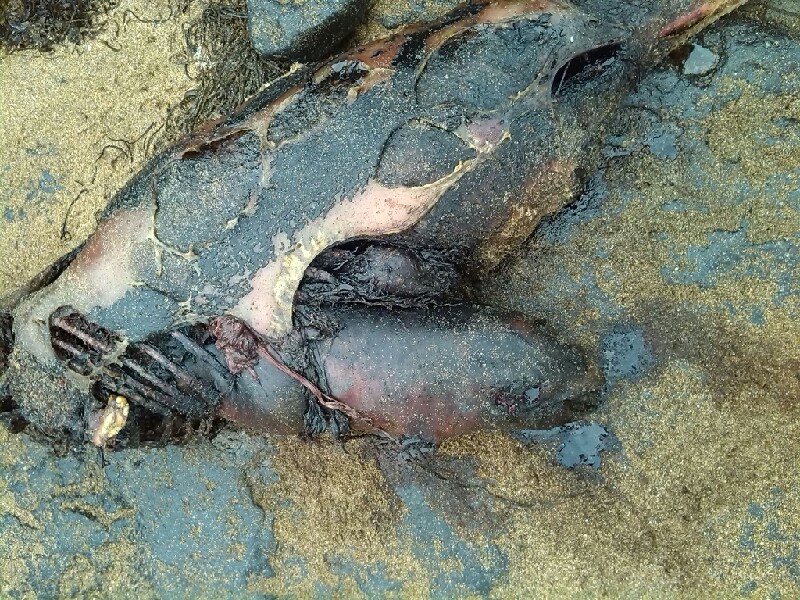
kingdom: Animalia
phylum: Chordata
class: Mammalia
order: Cetacea
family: Phocoenidae
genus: Phocoena
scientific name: Phocoena phocoena
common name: Harbor porpoise
